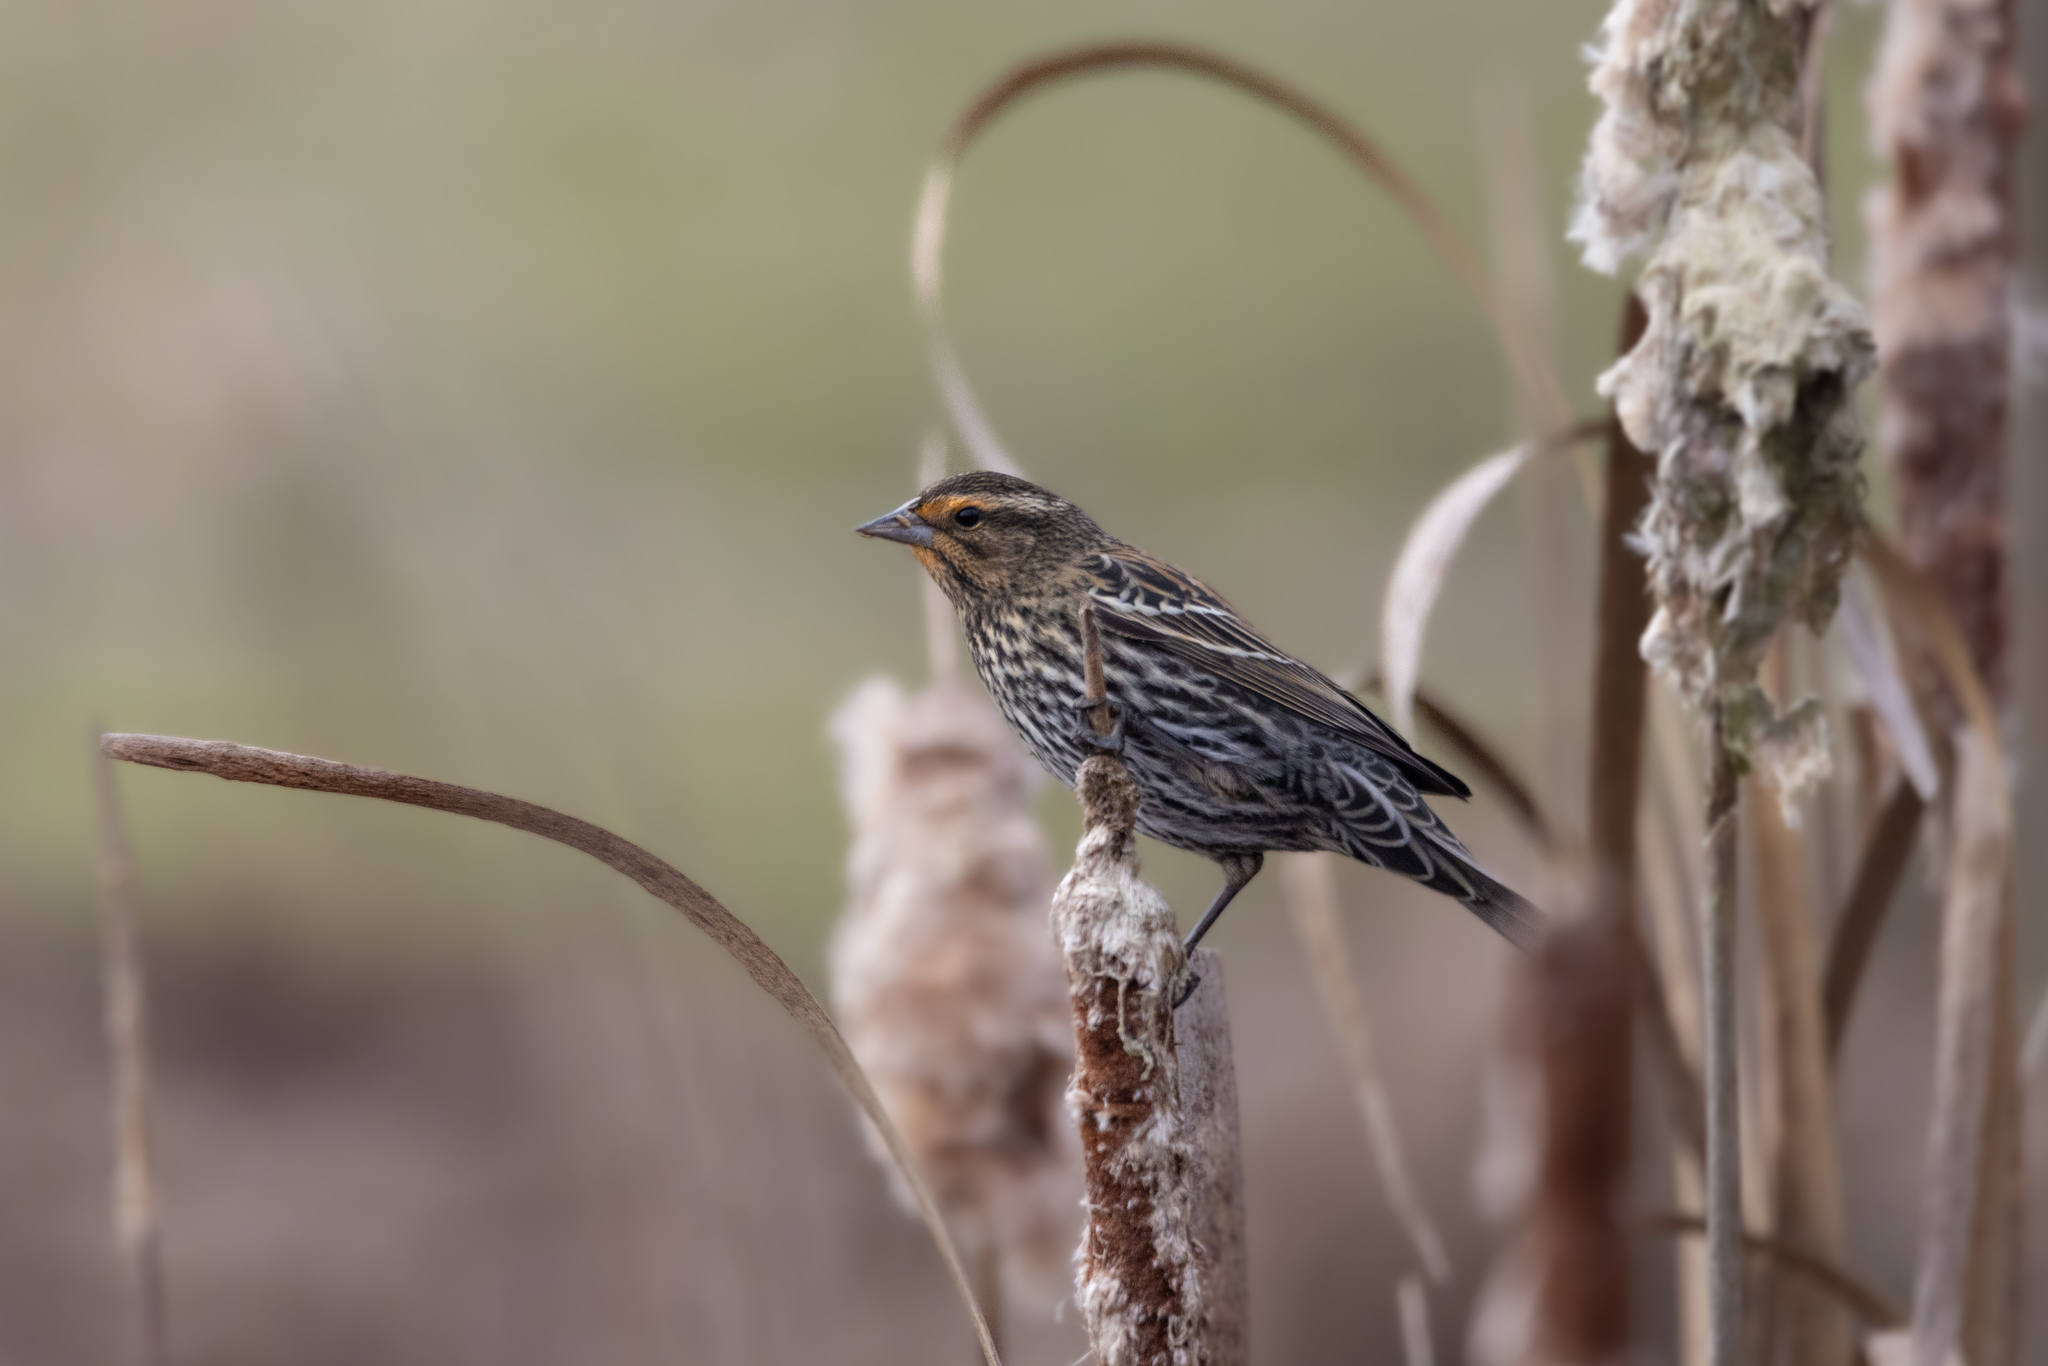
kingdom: Animalia
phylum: Chordata
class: Aves
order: Passeriformes
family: Icteridae
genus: Agelaius
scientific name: Agelaius phoeniceus
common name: Red-winged blackbird
